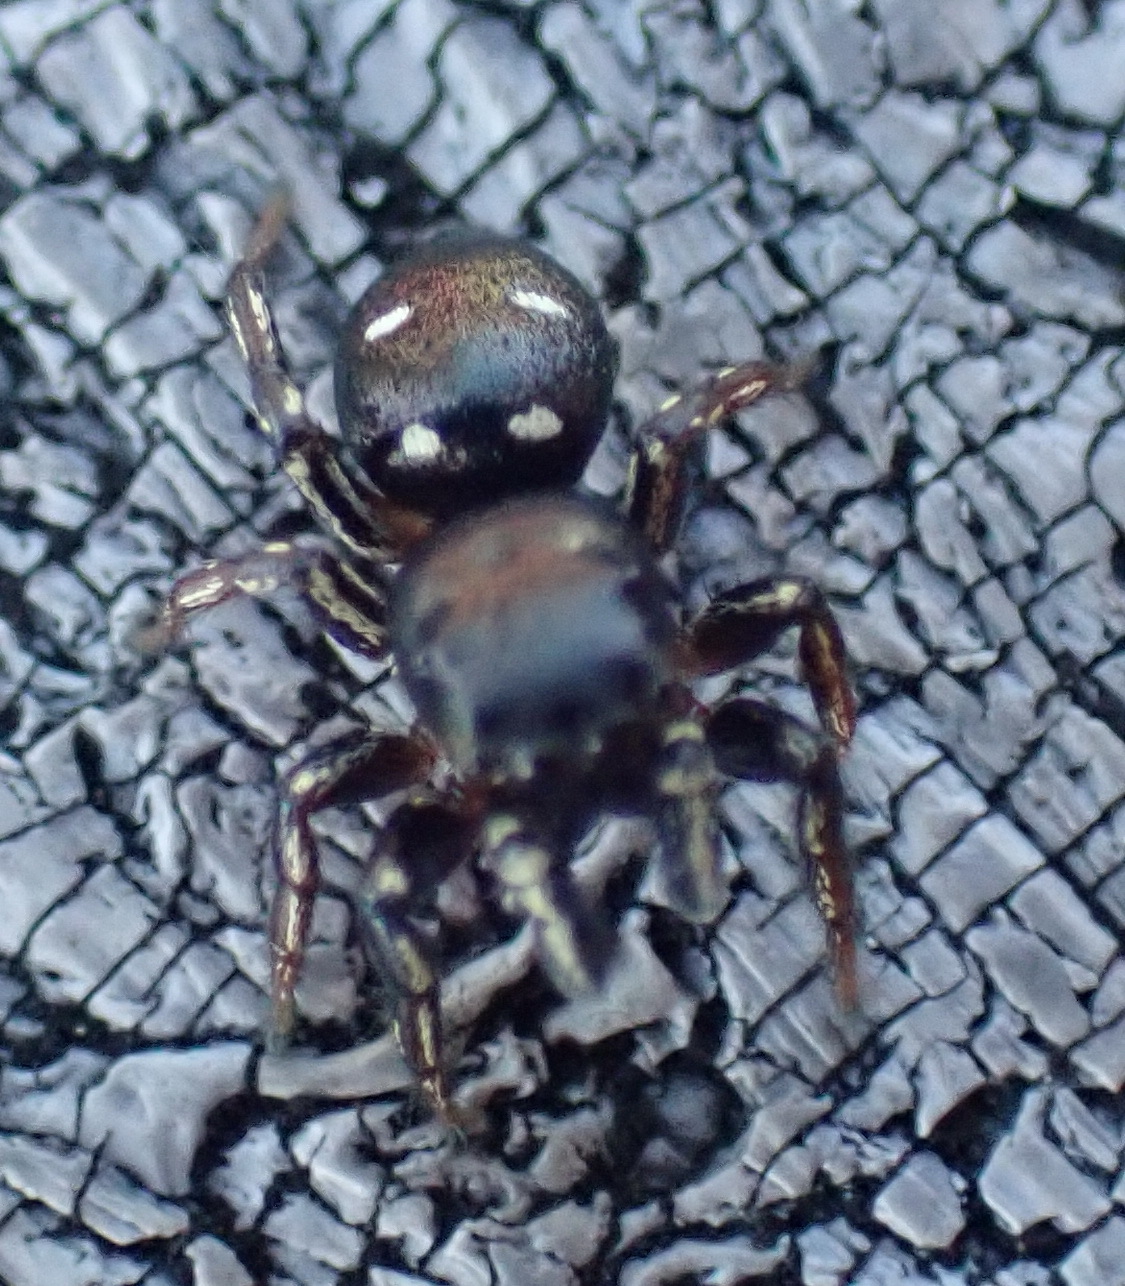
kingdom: Animalia
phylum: Arthropoda
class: Arachnida
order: Araneae
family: Salticidae
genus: Heliophanus
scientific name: Heliophanus
